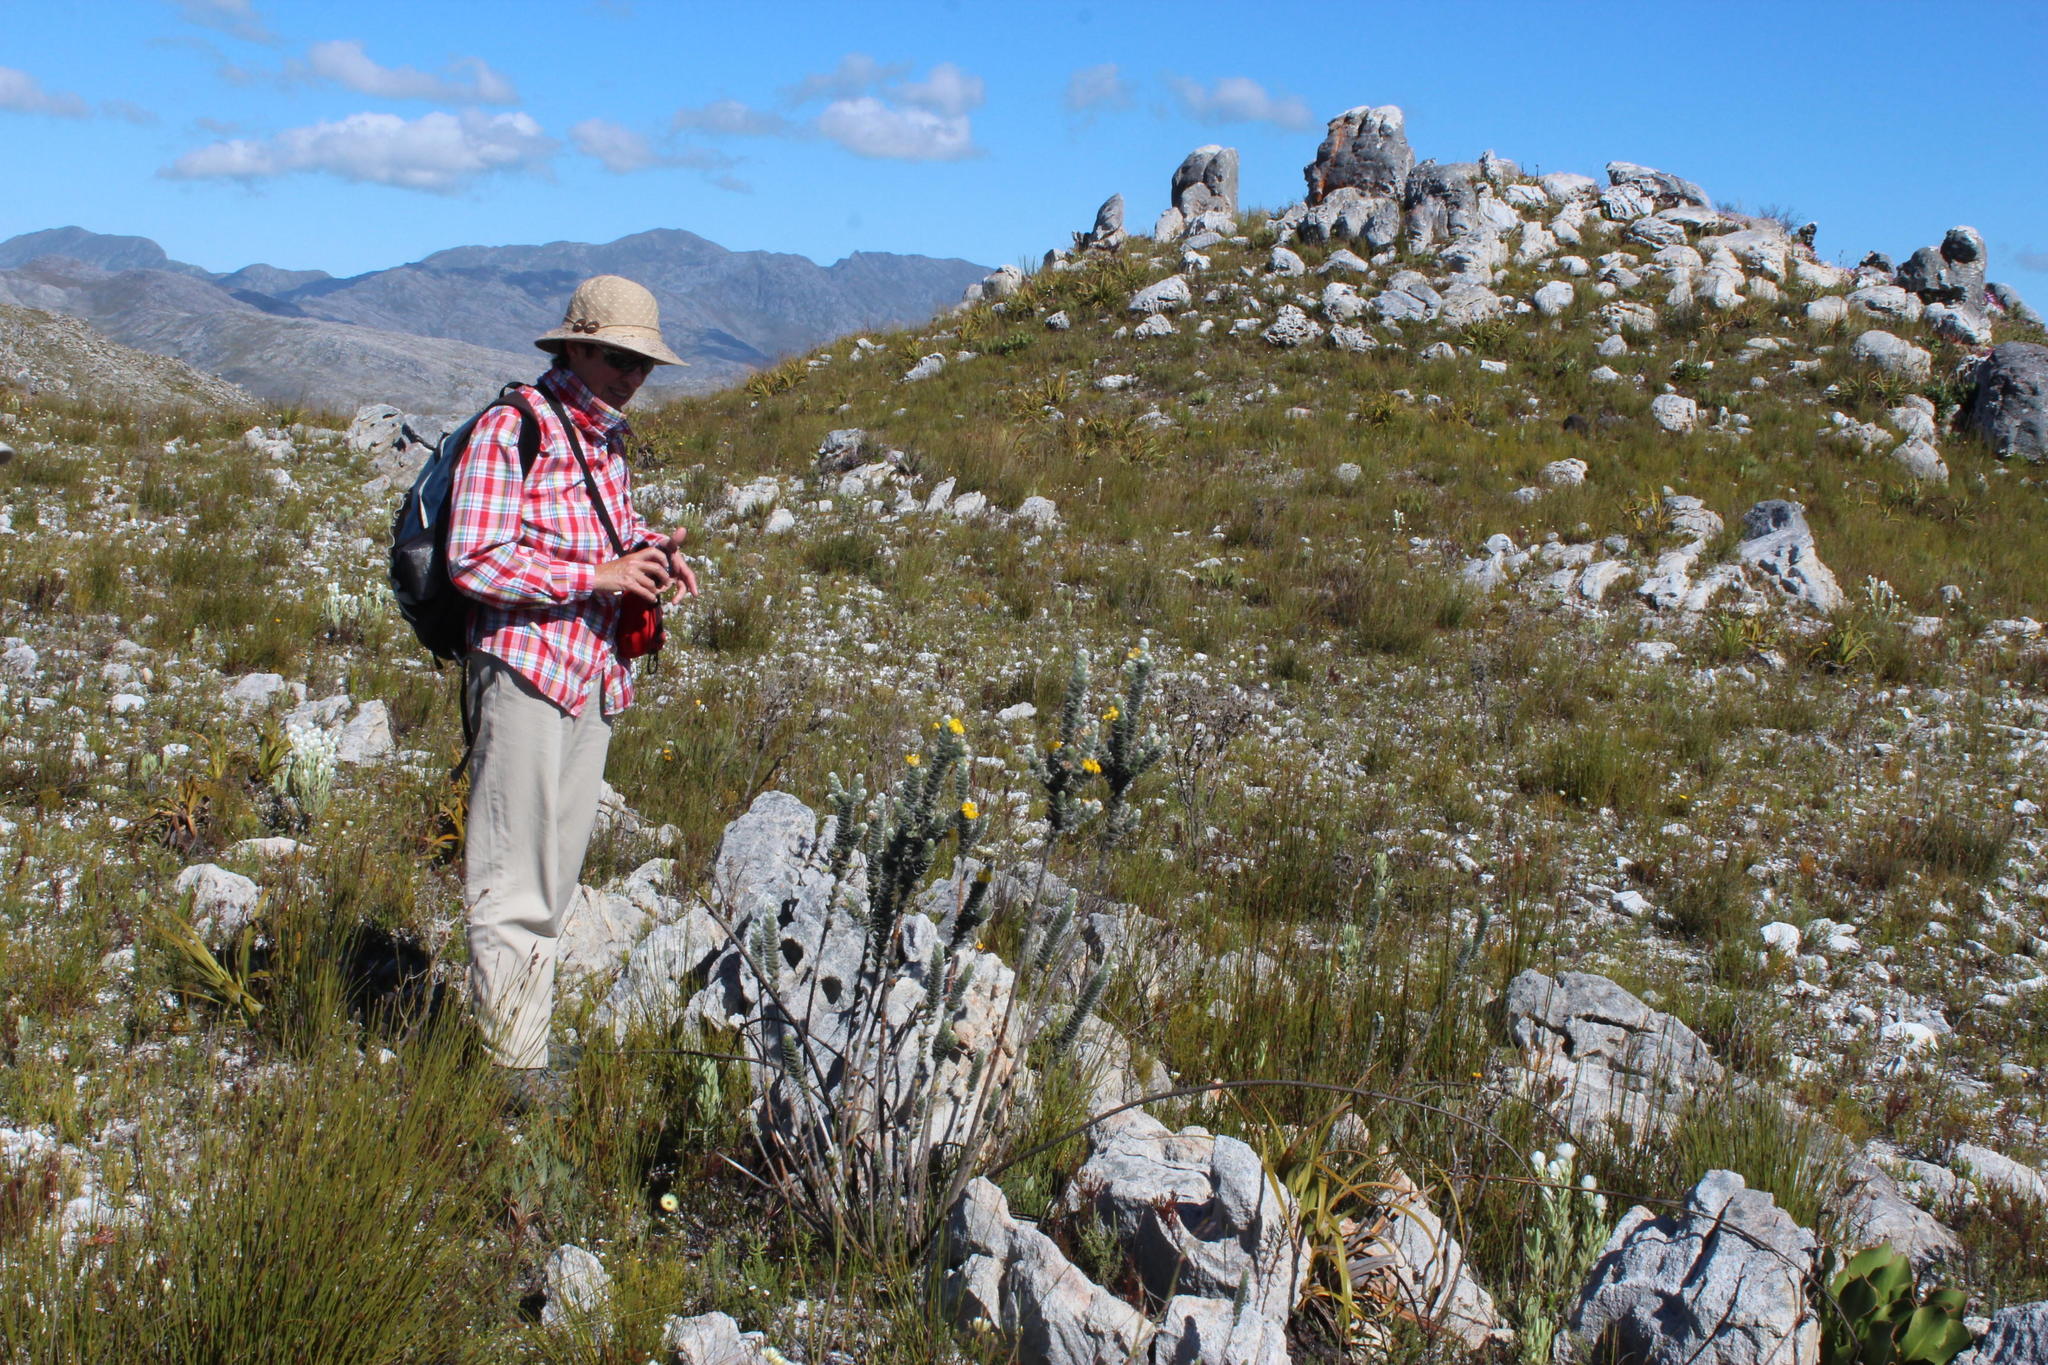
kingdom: Plantae
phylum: Tracheophyta
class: Magnoliopsida
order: Fabales
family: Fabaceae
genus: Liparia
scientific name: Liparia vestita
